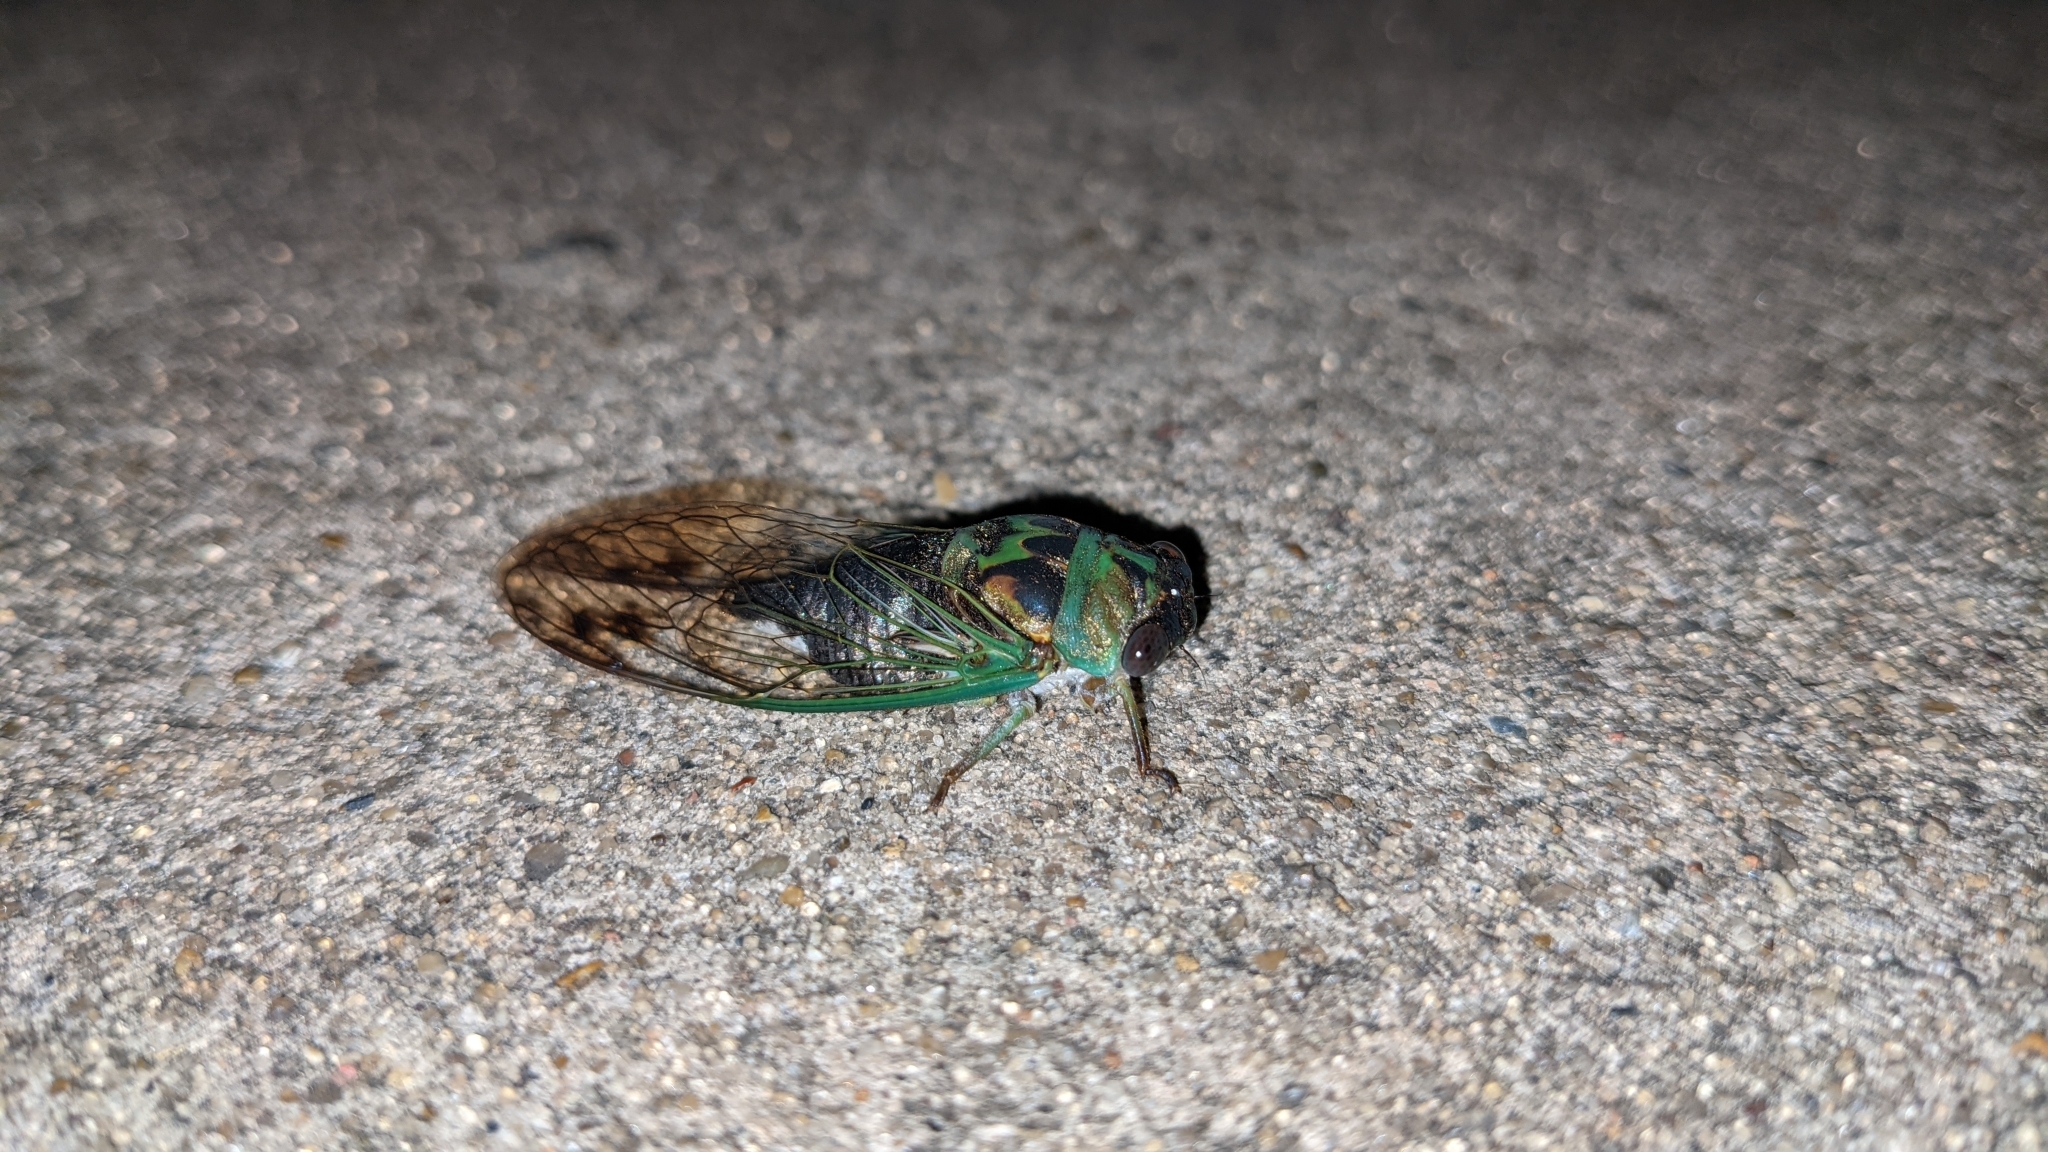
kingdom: Animalia
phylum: Arthropoda
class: Insecta
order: Hemiptera
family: Cicadidae
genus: Neotibicen
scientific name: Neotibicen davisi
